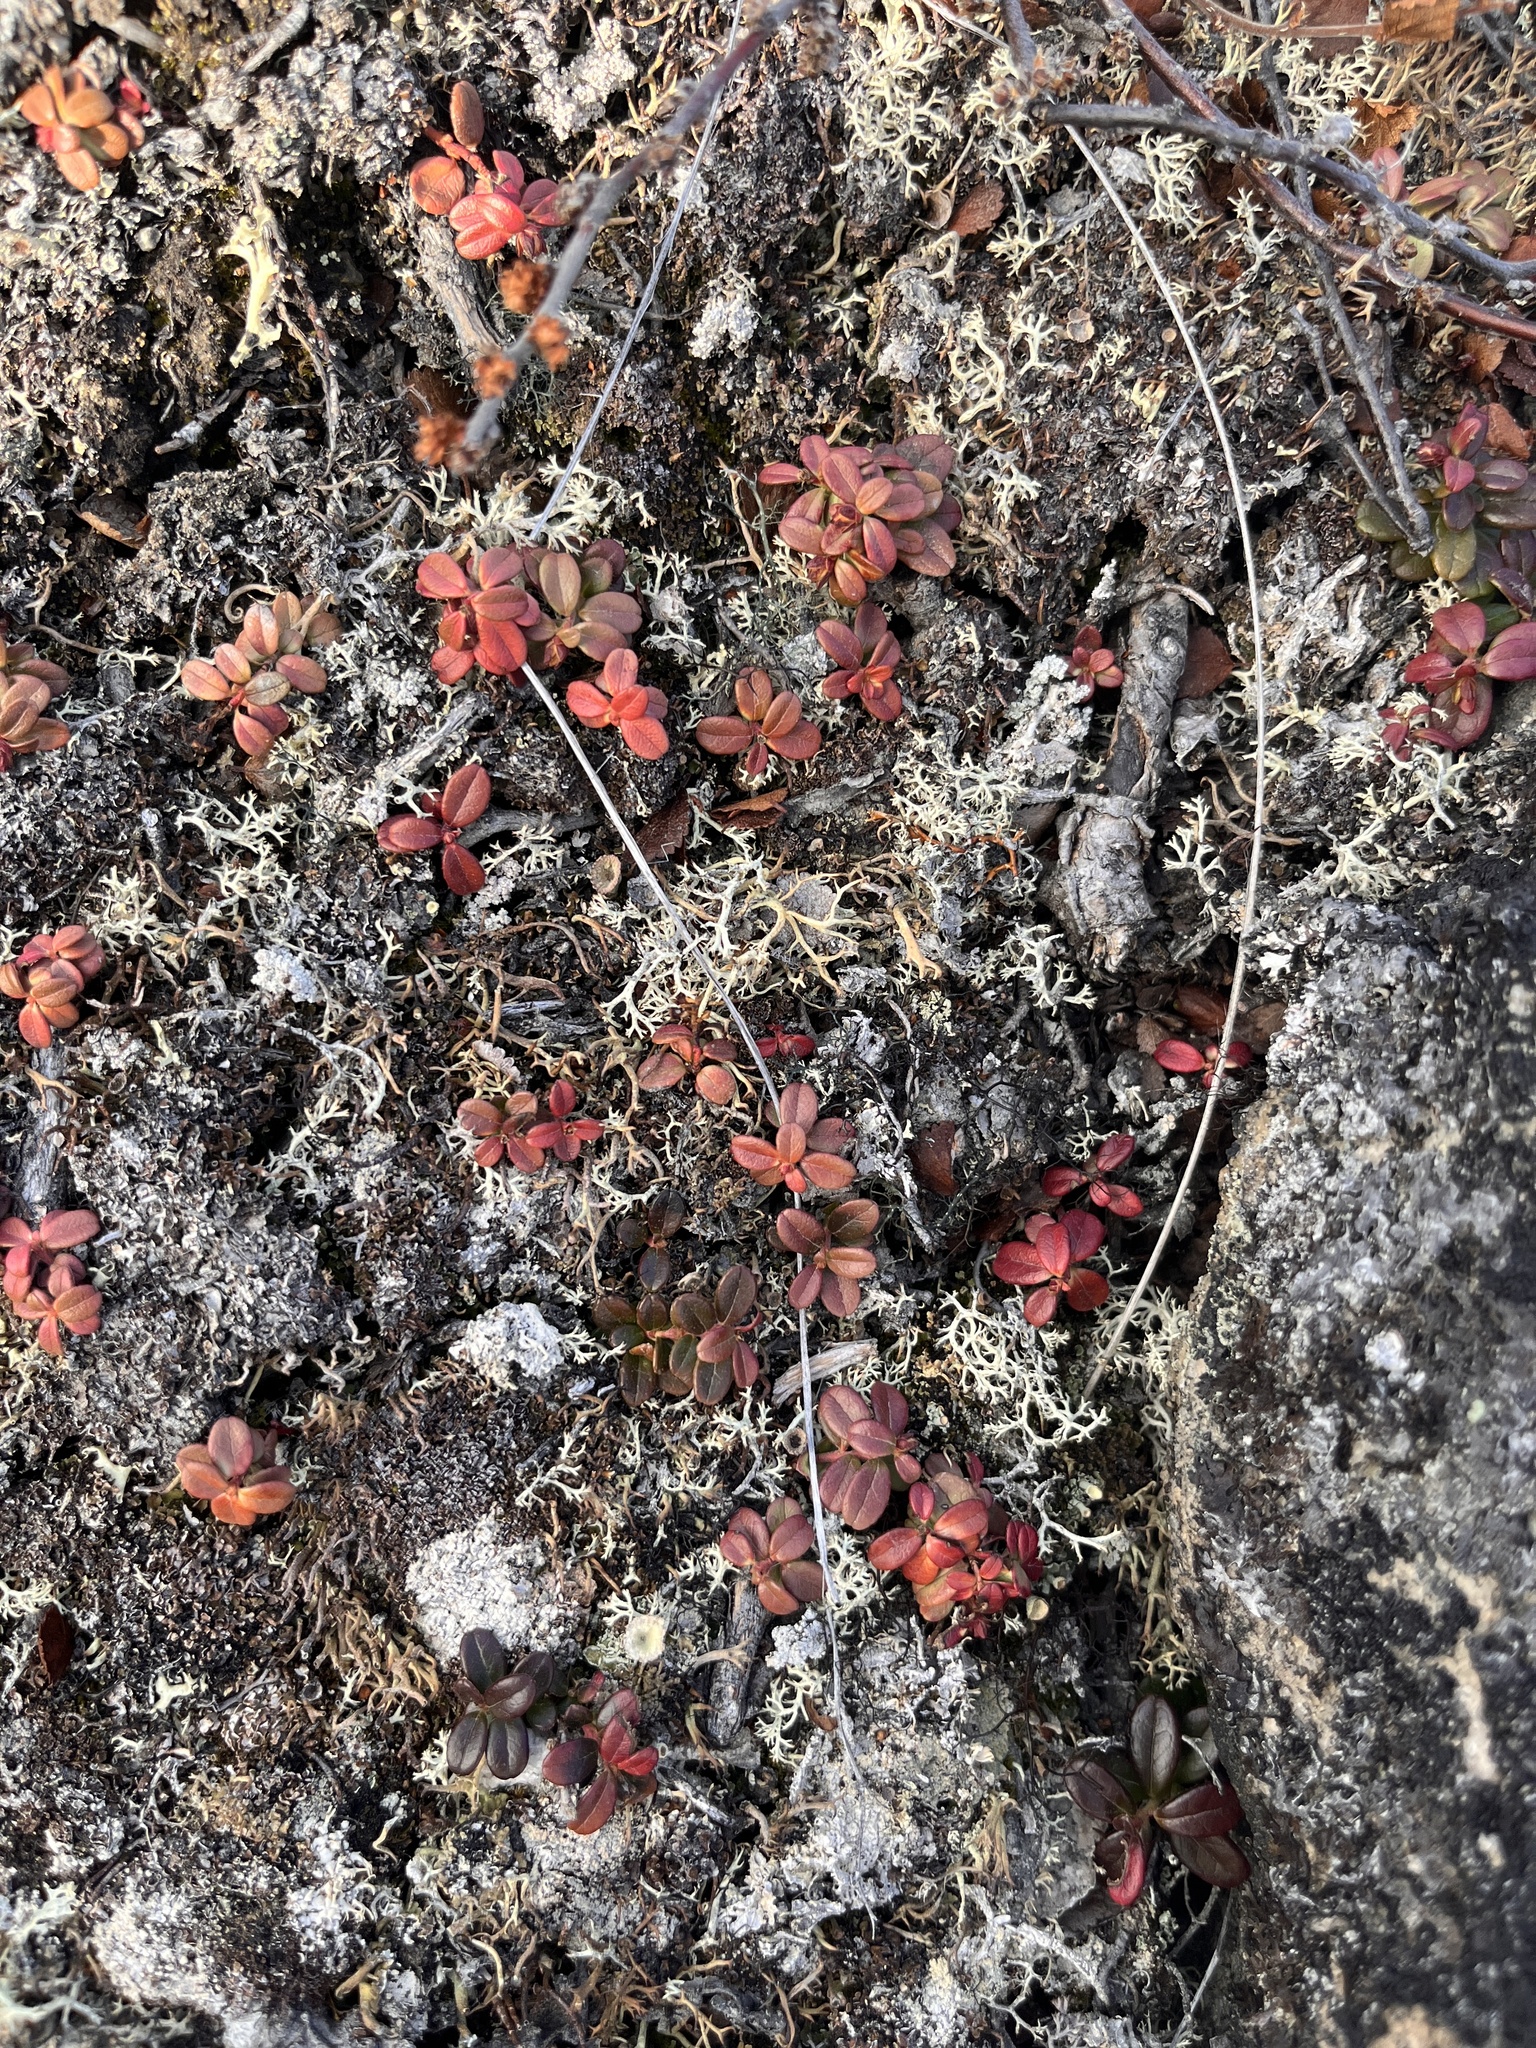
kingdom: Plantae
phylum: Tracheophyta
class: Magnoliopsida
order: Ericales
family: Ericaceae
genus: Vaccinium
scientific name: Vaccinium vitis-idaea
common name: Cowberry
